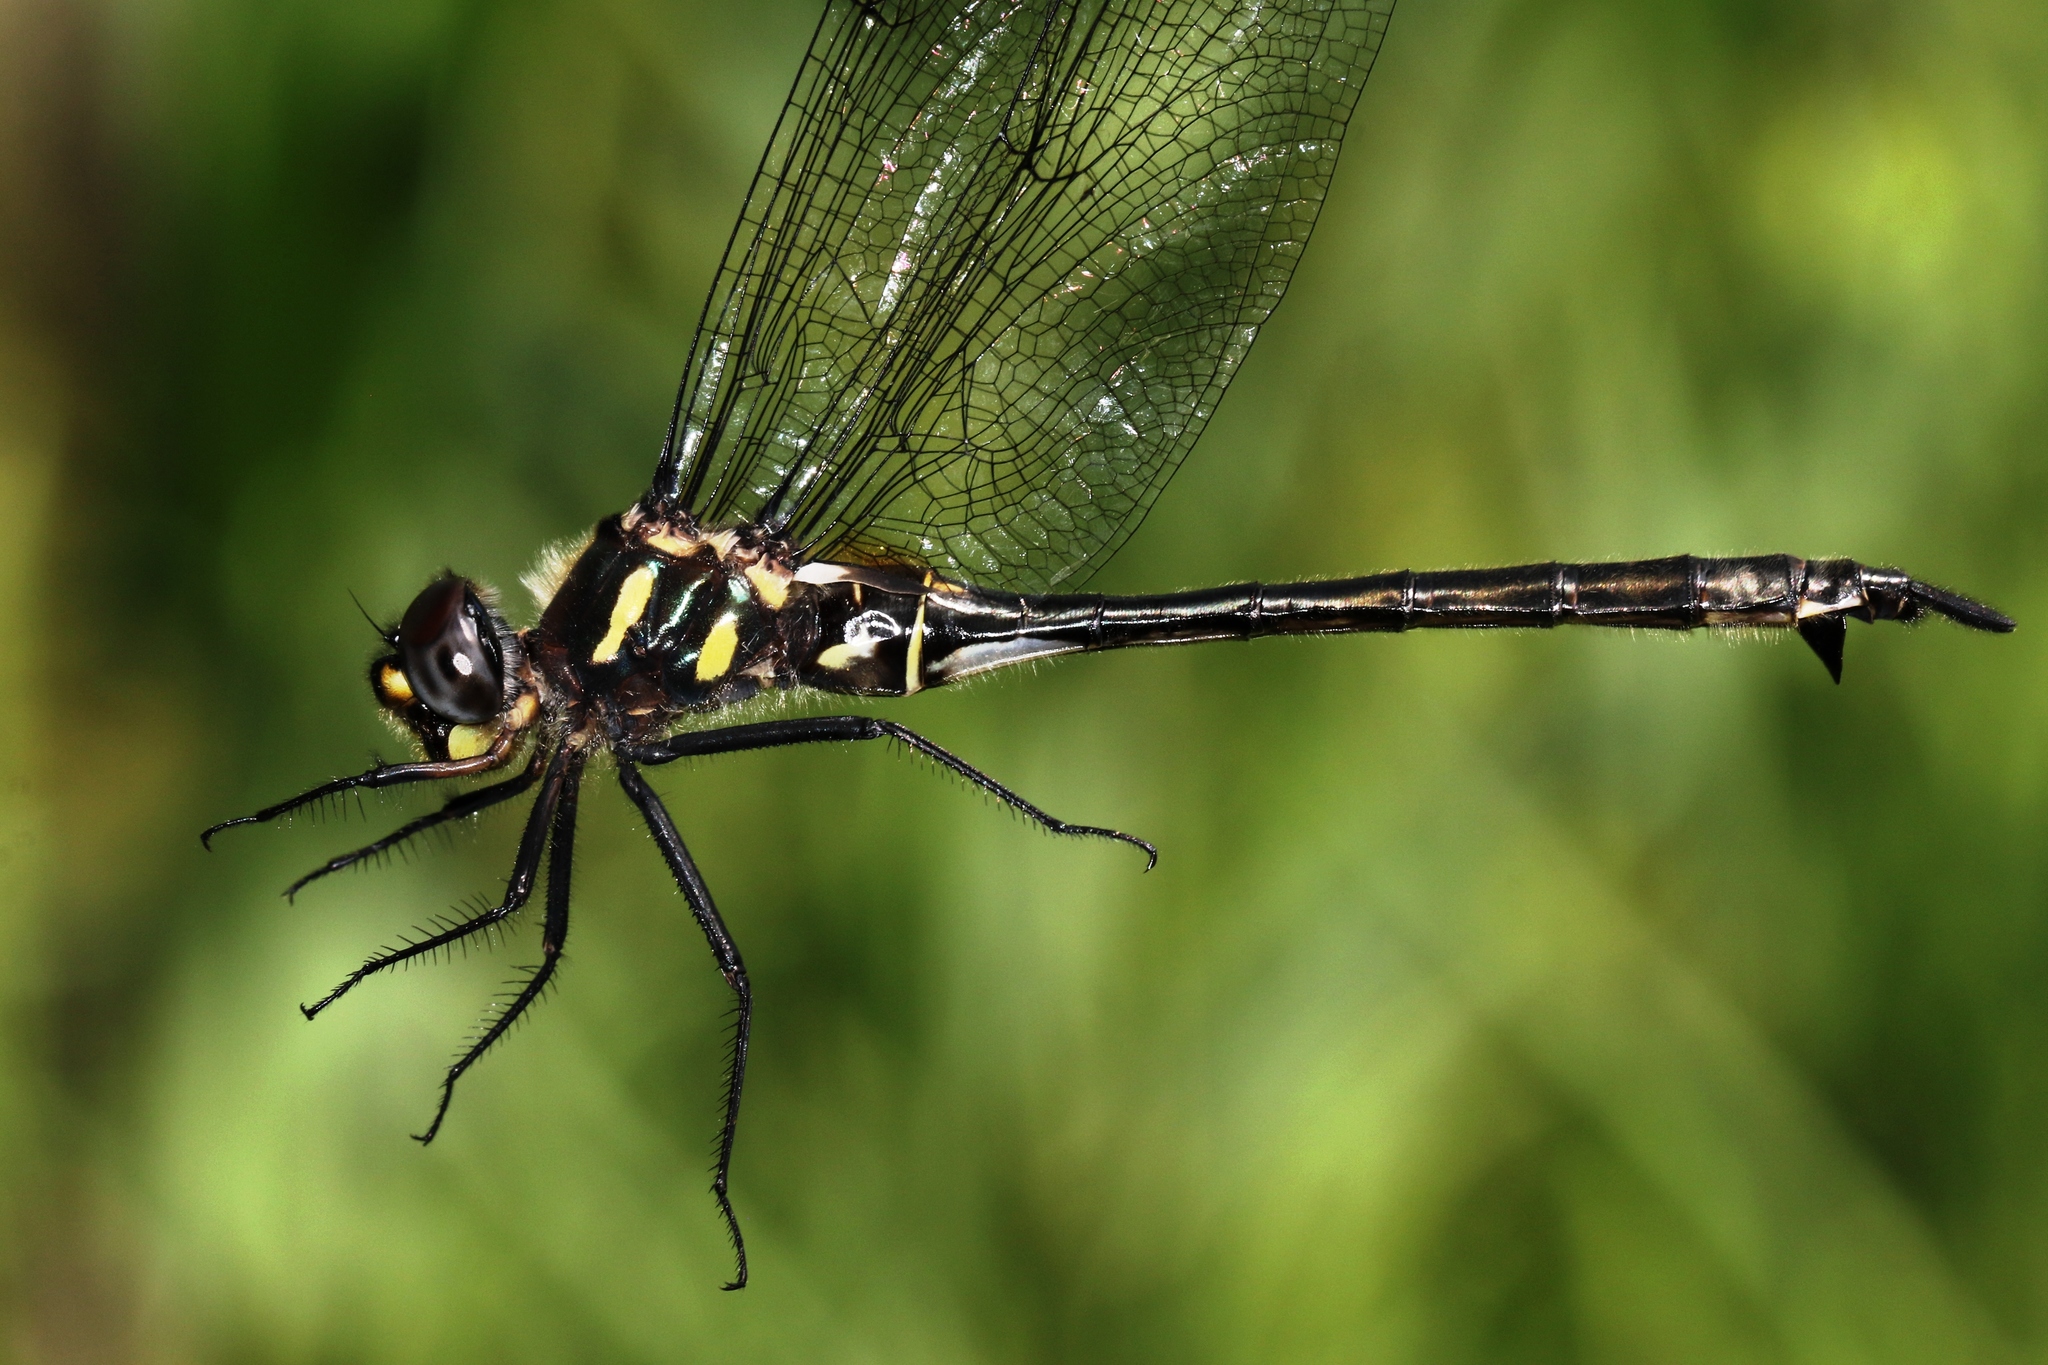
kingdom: Animalia
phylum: Arthropoda
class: Insecta
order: Odonata
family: Corduliidae
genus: Somatochlora
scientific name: Somatochlora elongata
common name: Ski-tipped emerald
